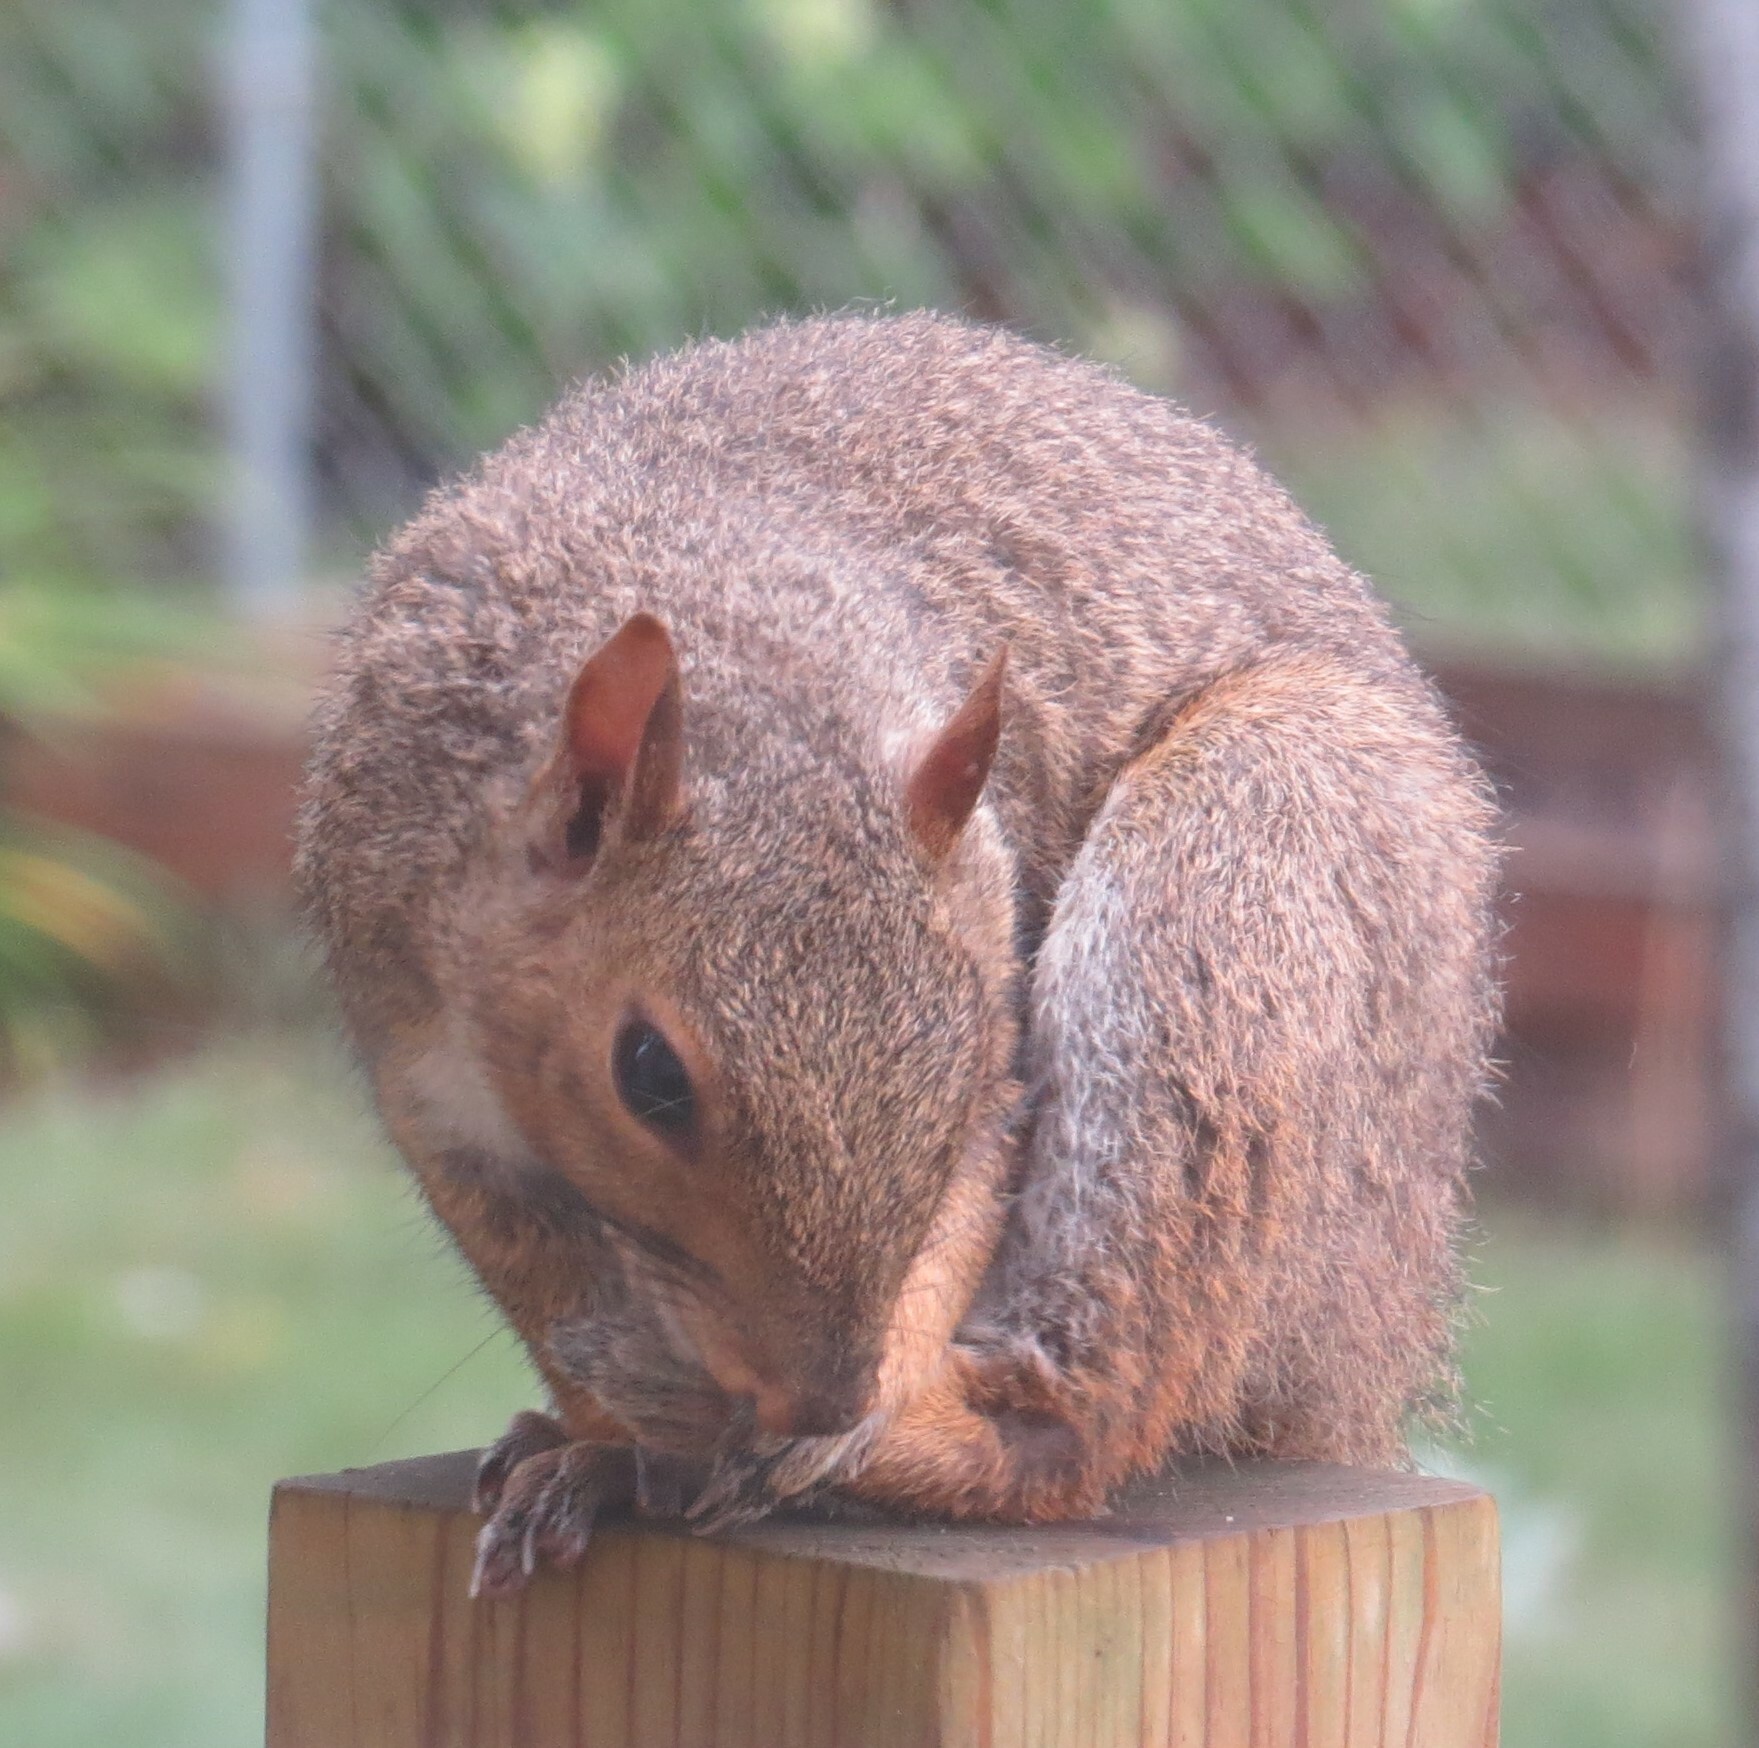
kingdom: Animalia
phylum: Chordata
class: Mammalia
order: Rodentia
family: Sciuridae
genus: Sciurus
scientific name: Sciurus carolinensis
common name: Eastern gray squirrel
